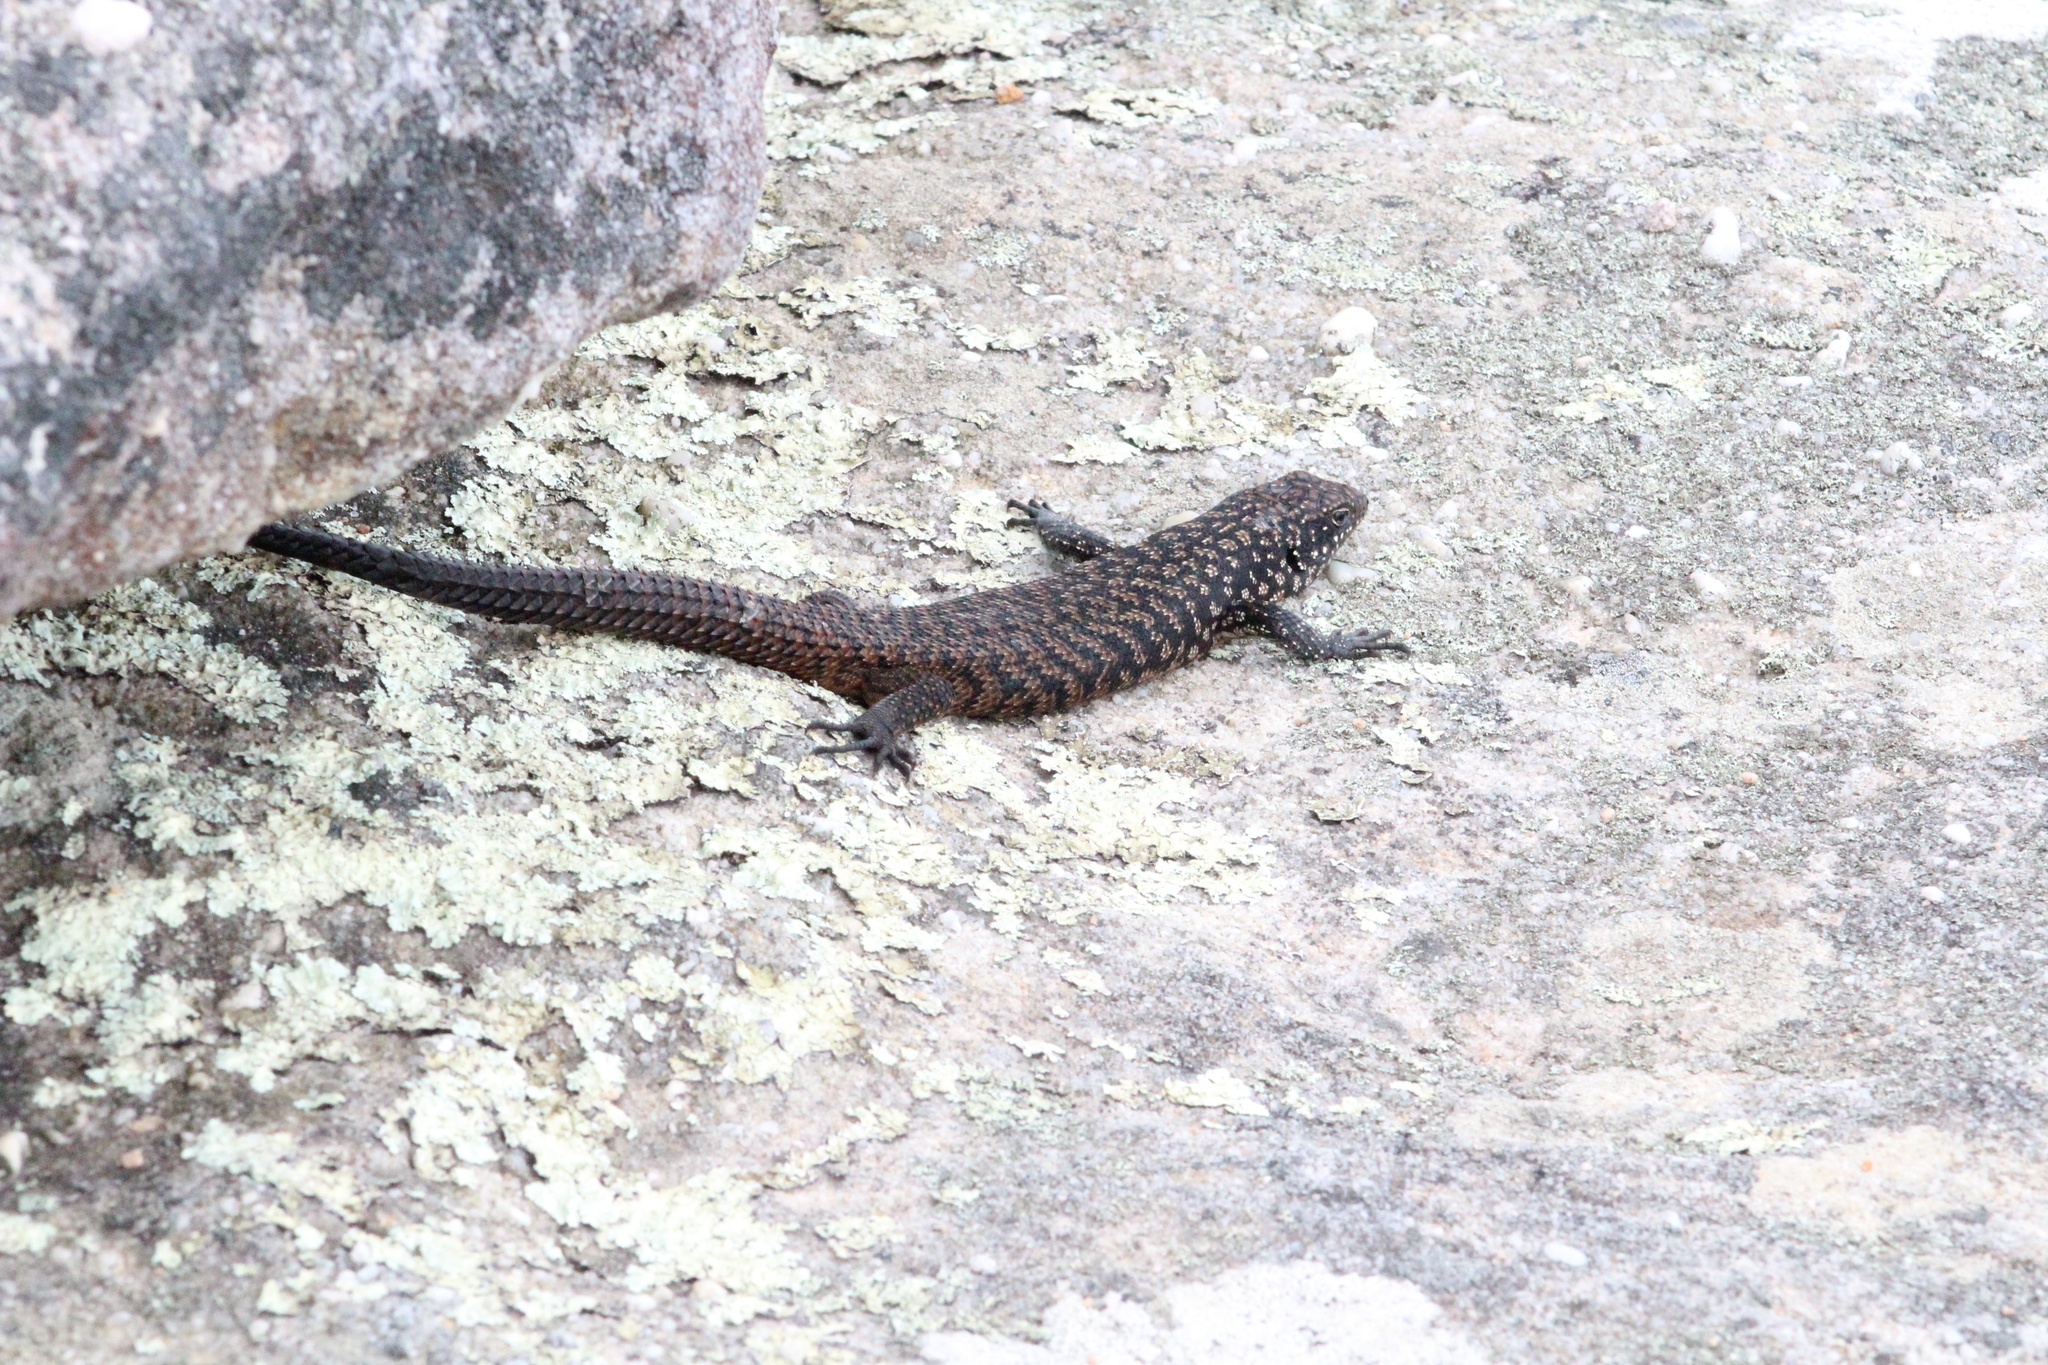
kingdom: Animalia
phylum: Chordata
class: Squamata
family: Scincidae
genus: Egernia
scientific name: Egernia cunninghami
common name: Cunningham's skink
